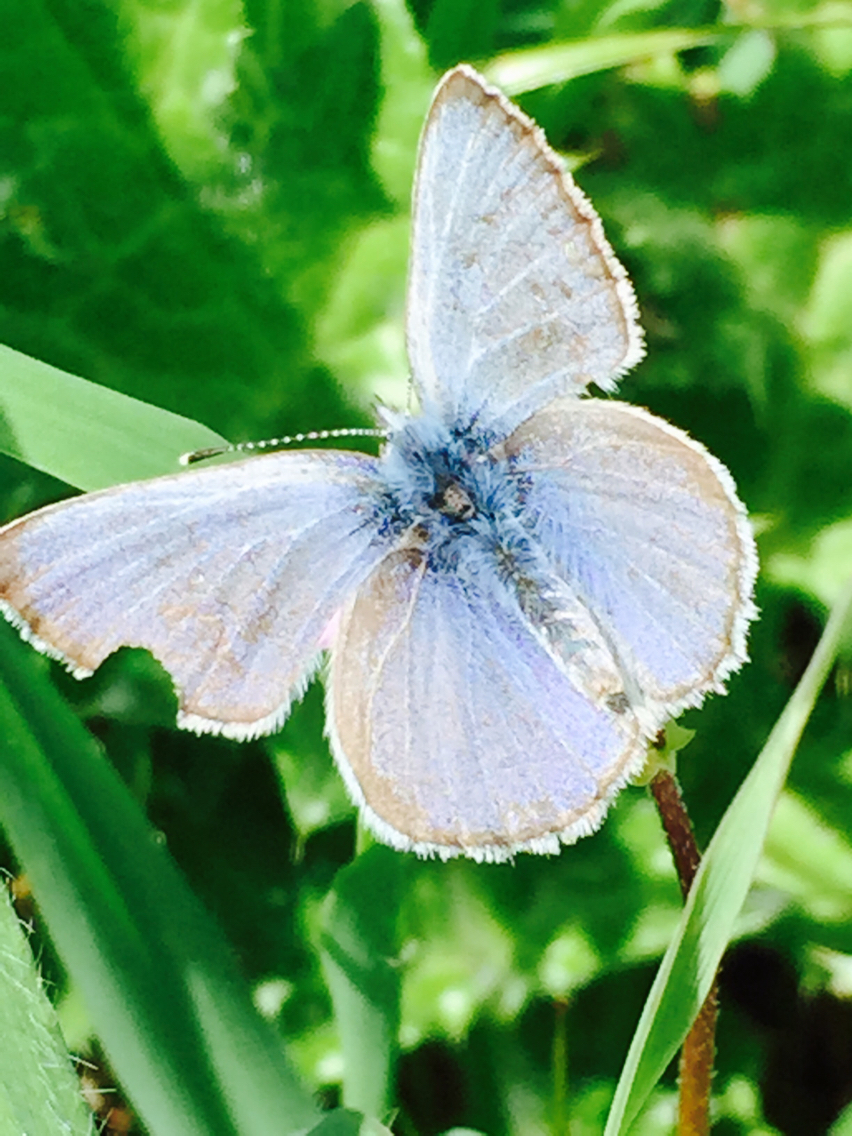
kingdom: Animalia
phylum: Arthropoda
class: Insecta
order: Lepidoptera
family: Lycaenidae
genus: Icaricia
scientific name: Icaricia icarioides
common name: Boisduval's blue
